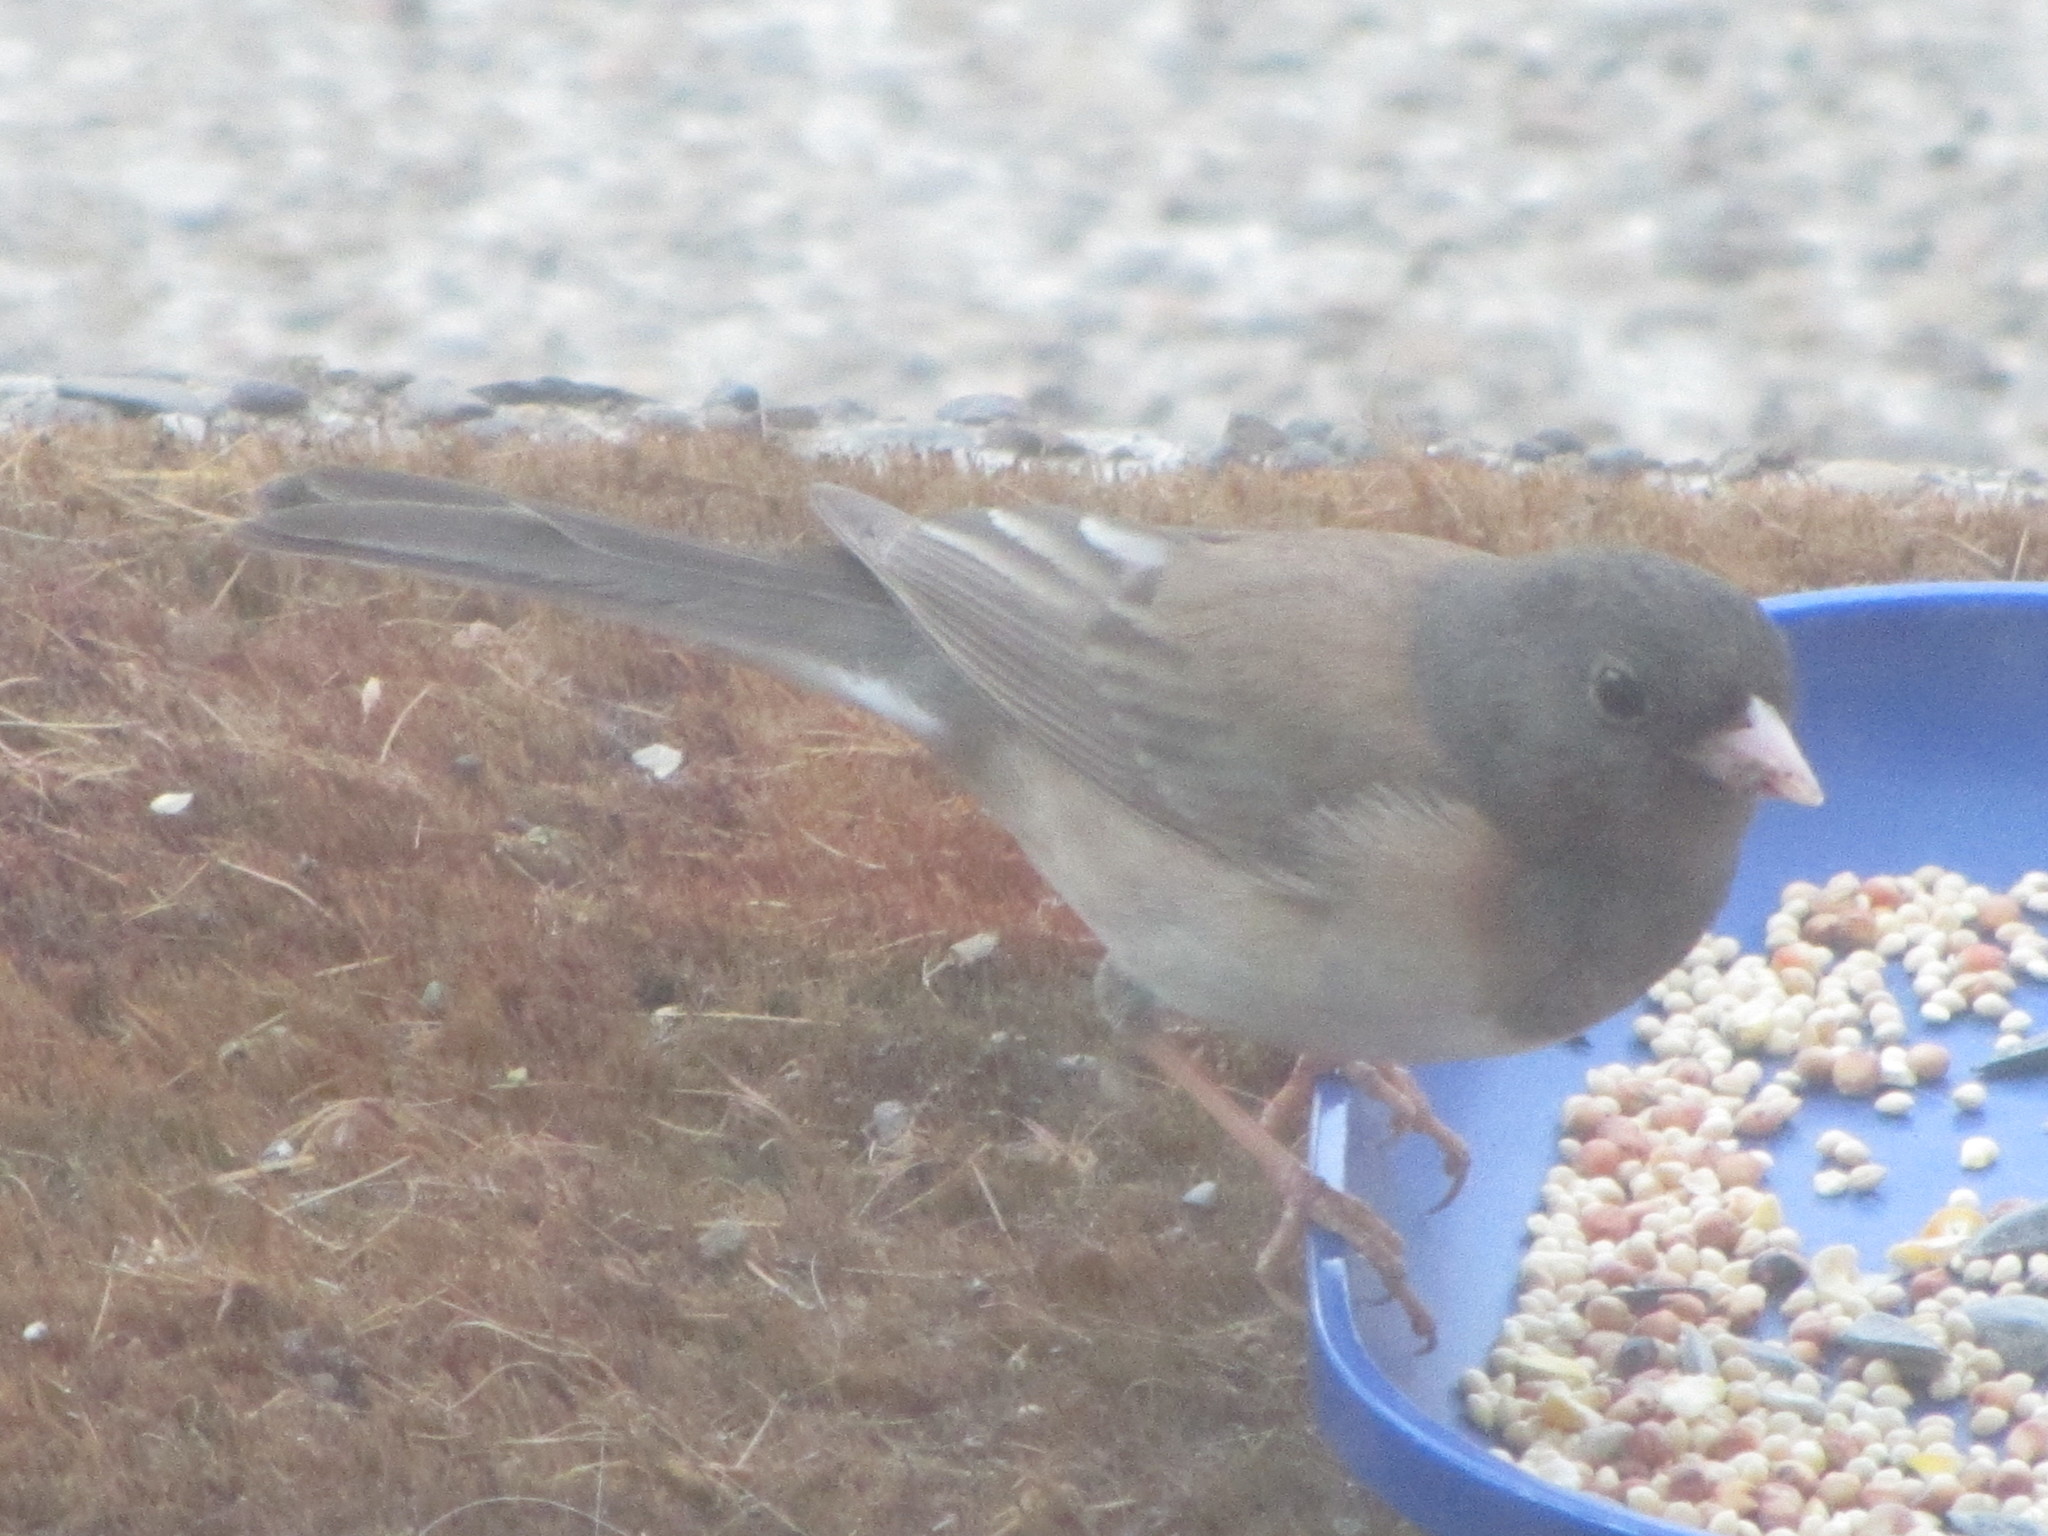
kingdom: Animalia
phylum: Chordata
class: Aves
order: Passeriformes
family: Passerellidae
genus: Junco
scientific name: Junco hyemalis
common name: Dark-eyed junco
